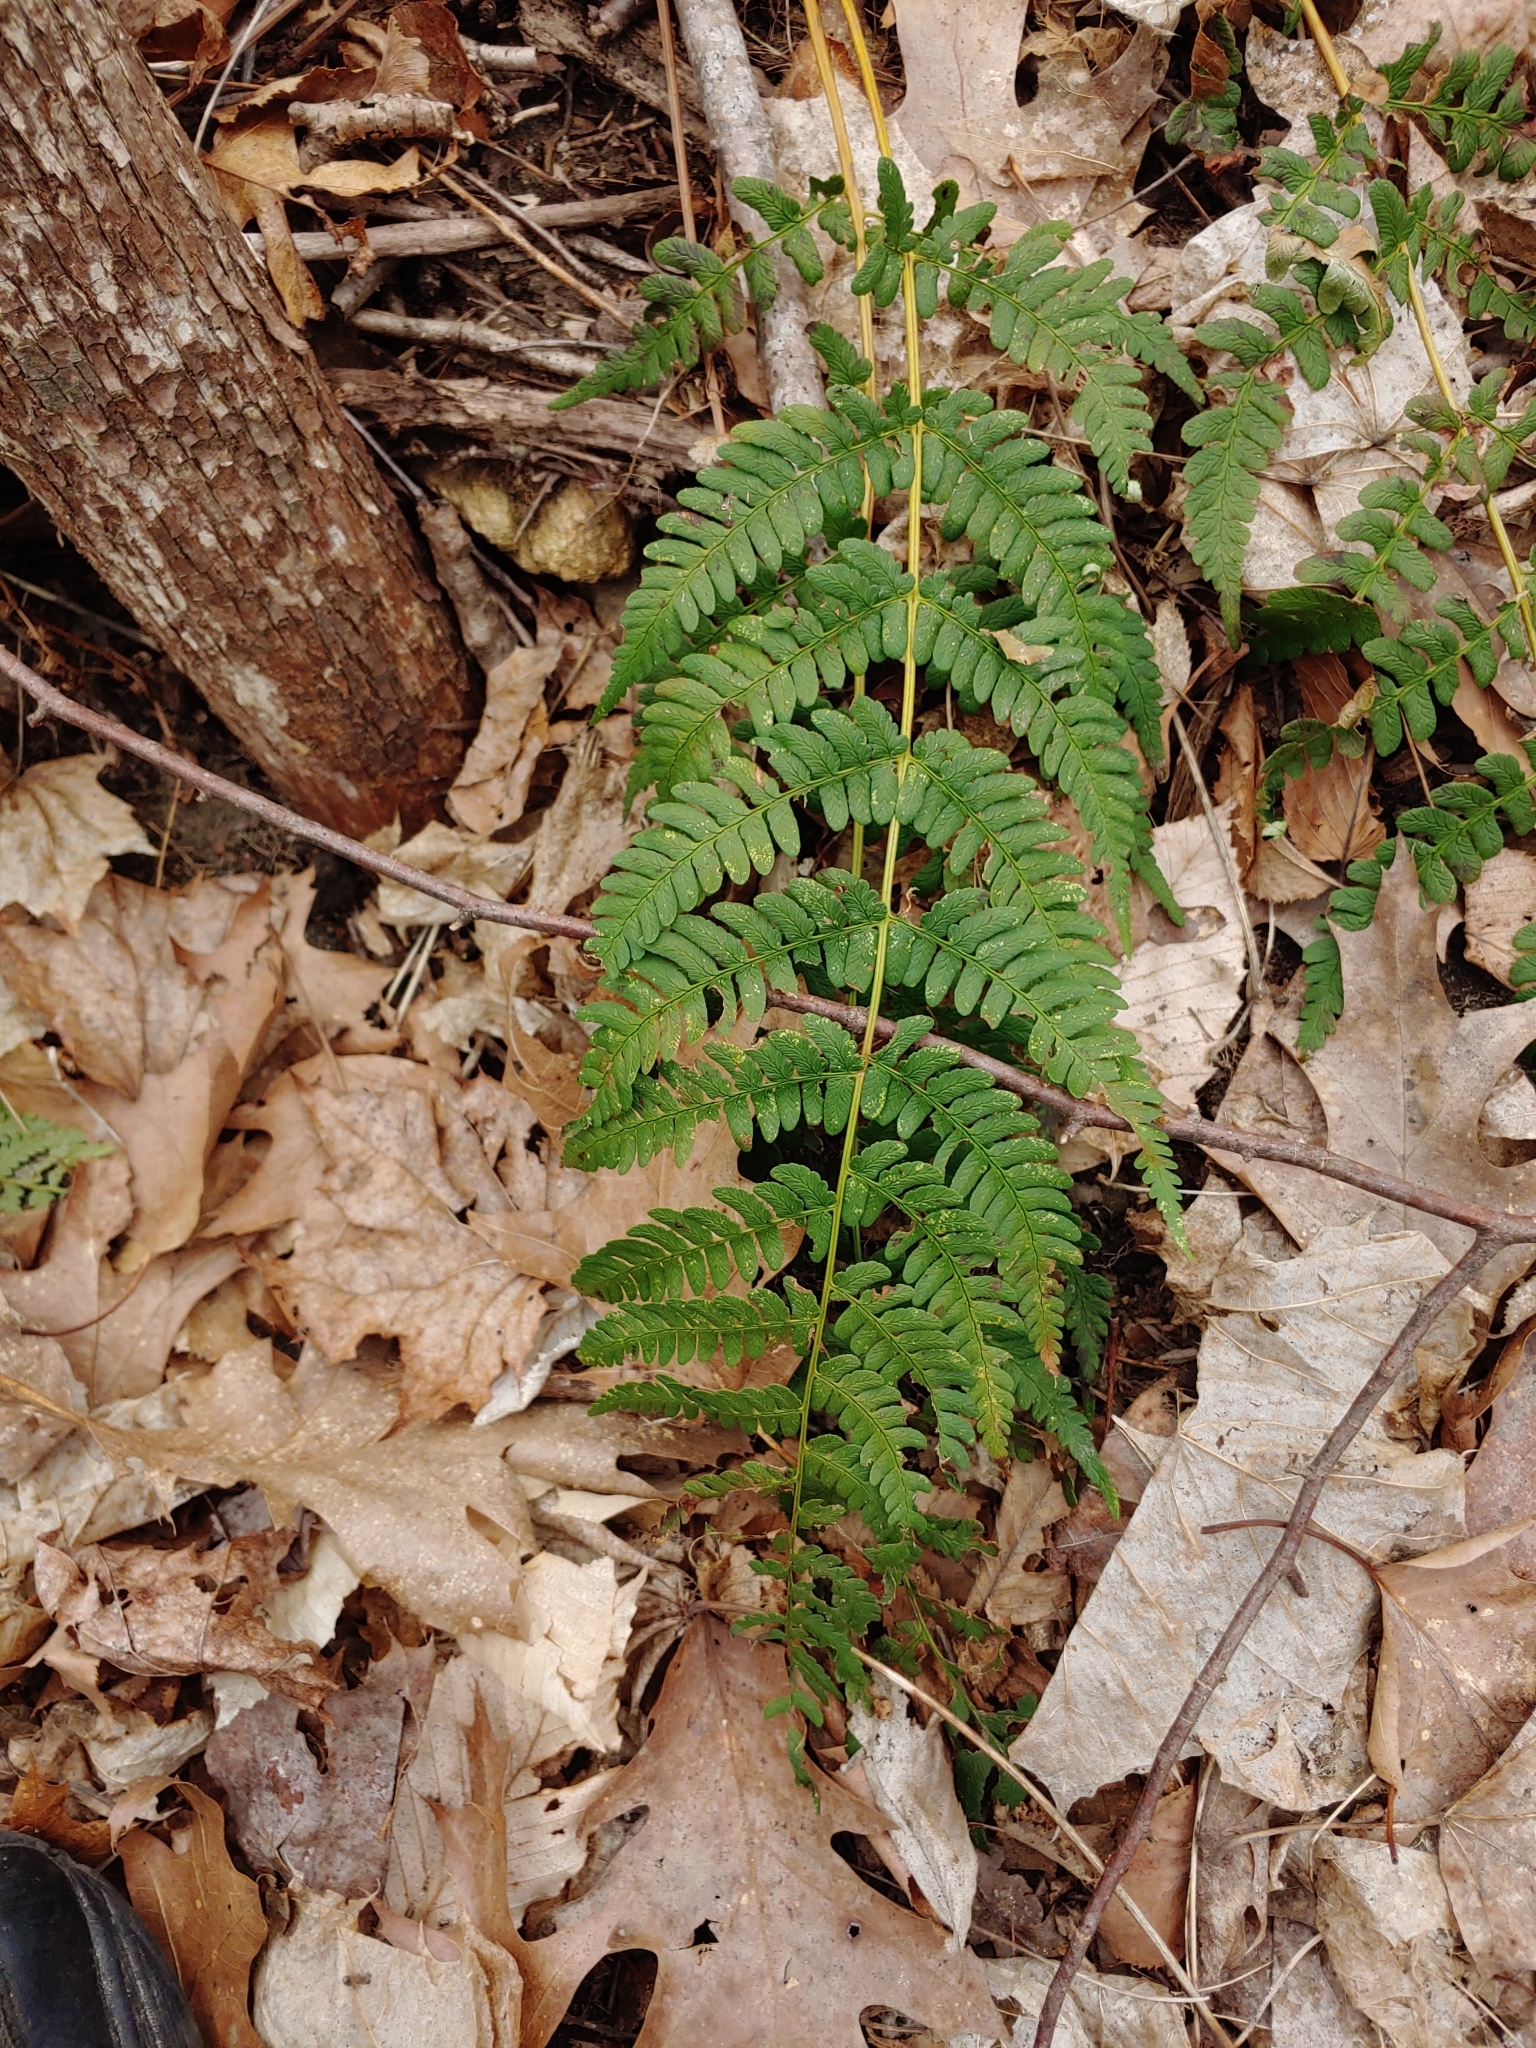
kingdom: Plantae
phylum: Tracheophyta
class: Polypodiopsida
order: Polypodiales
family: Dryopteridaceae
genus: Dryopteris
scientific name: Dryopteris marginalis
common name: Marginal wood fern
